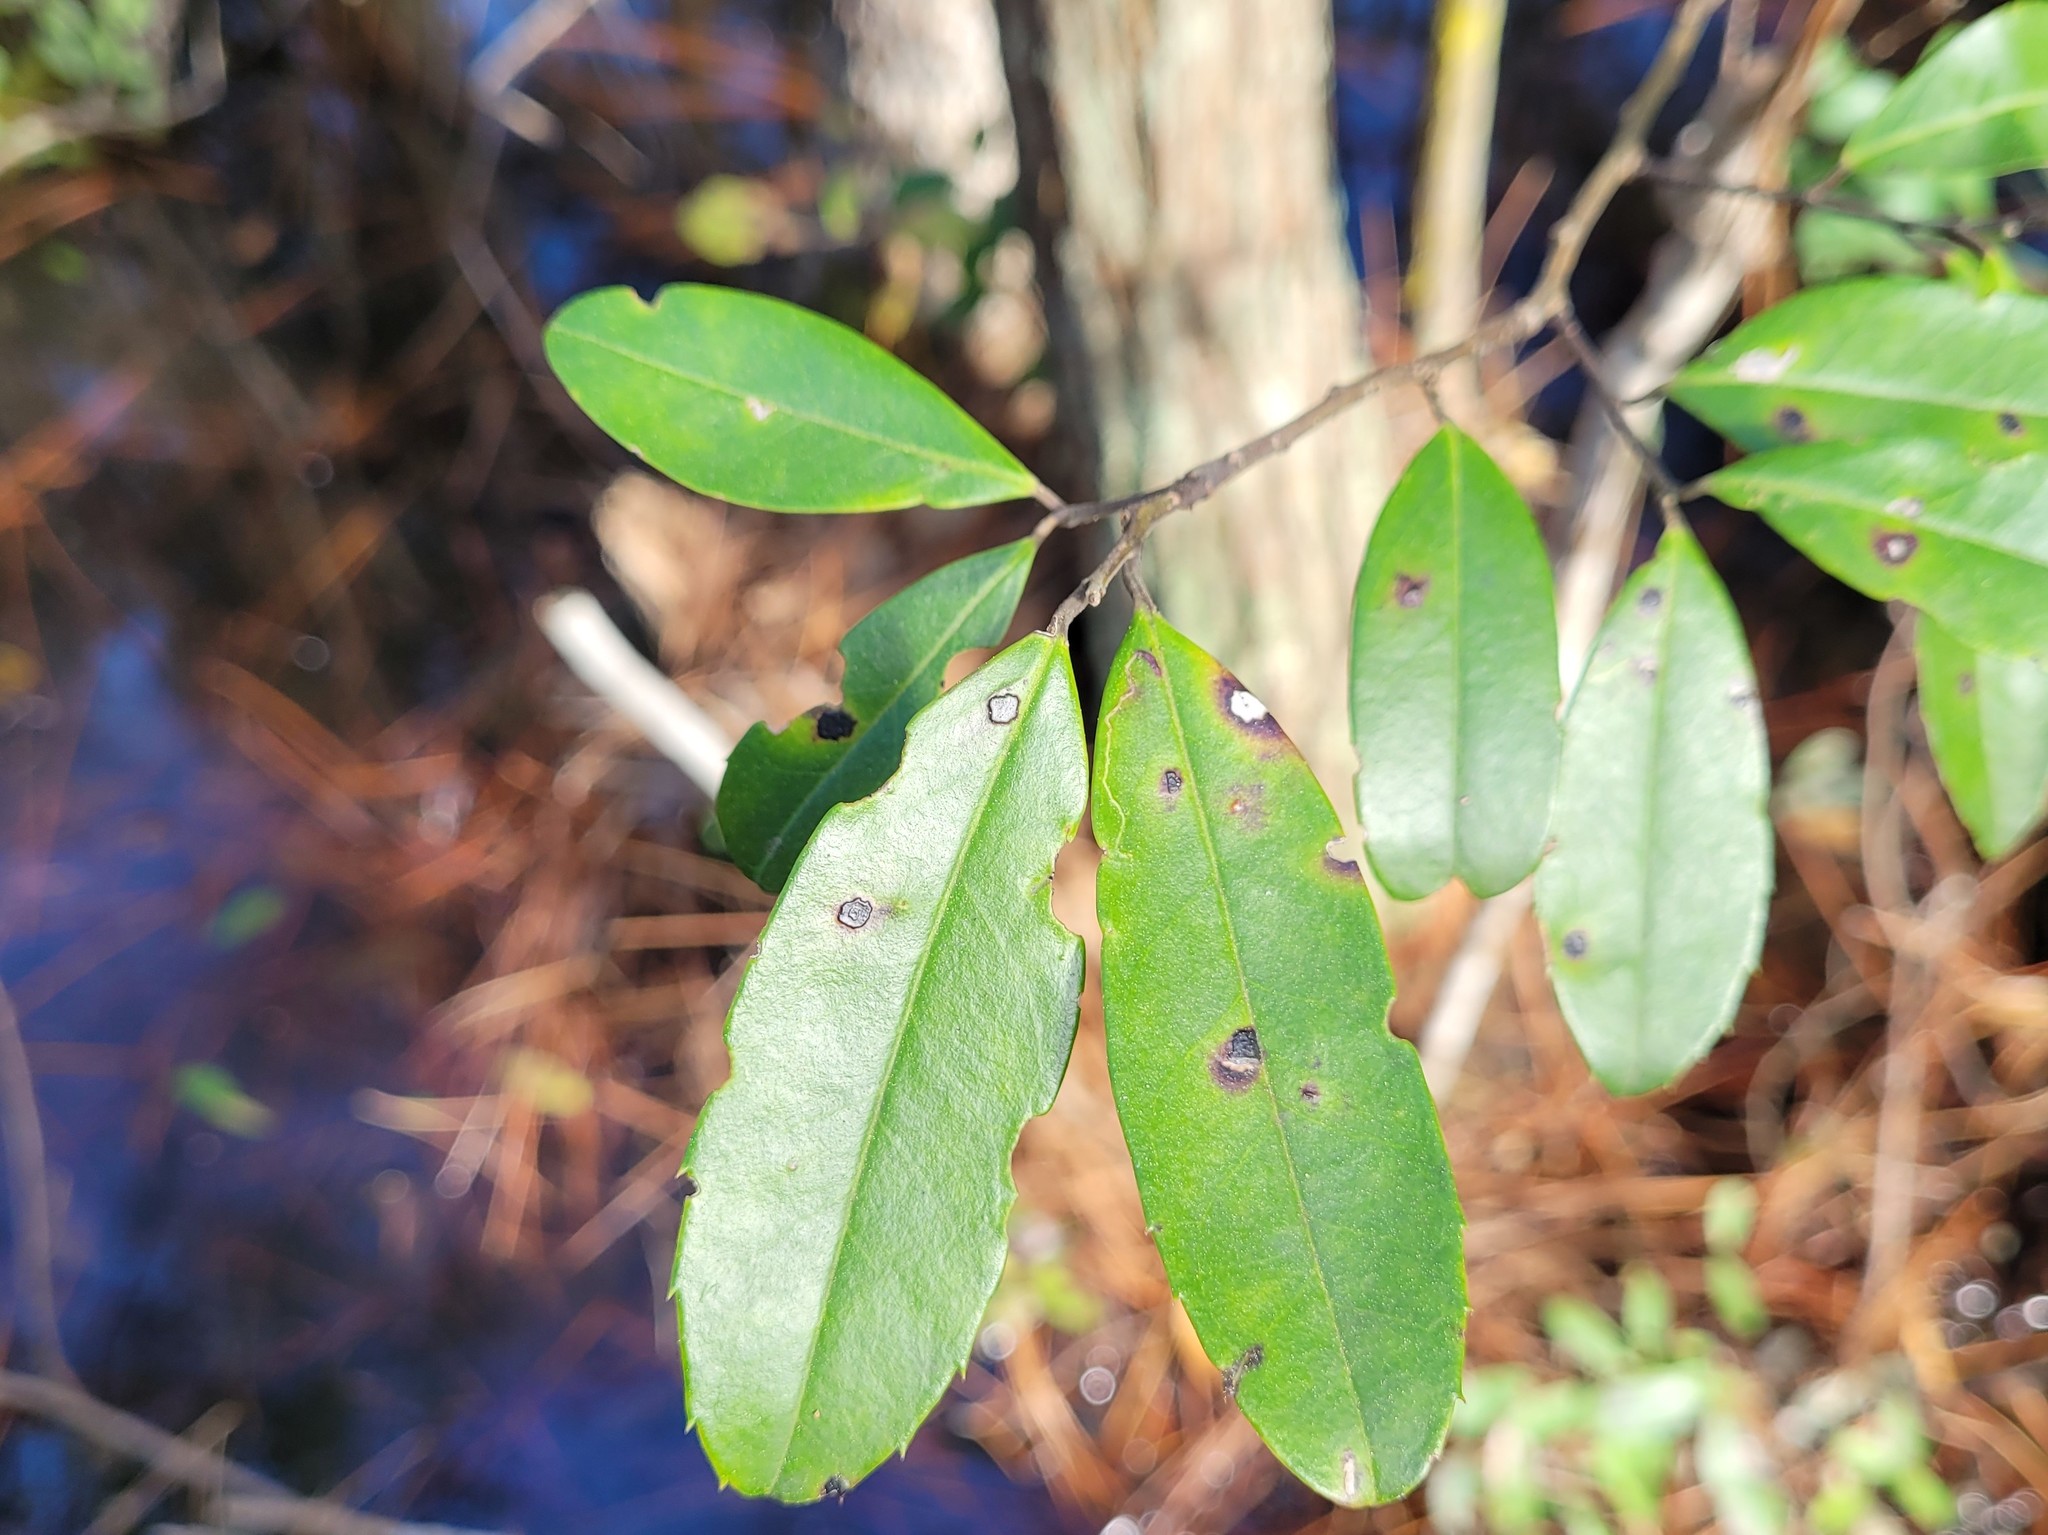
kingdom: Plantae
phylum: Tracheophyta
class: Magnoliopsida
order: Aquifoliales
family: Aquifoliaceae
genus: Ilex
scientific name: Ilex cassine
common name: Dahoon
